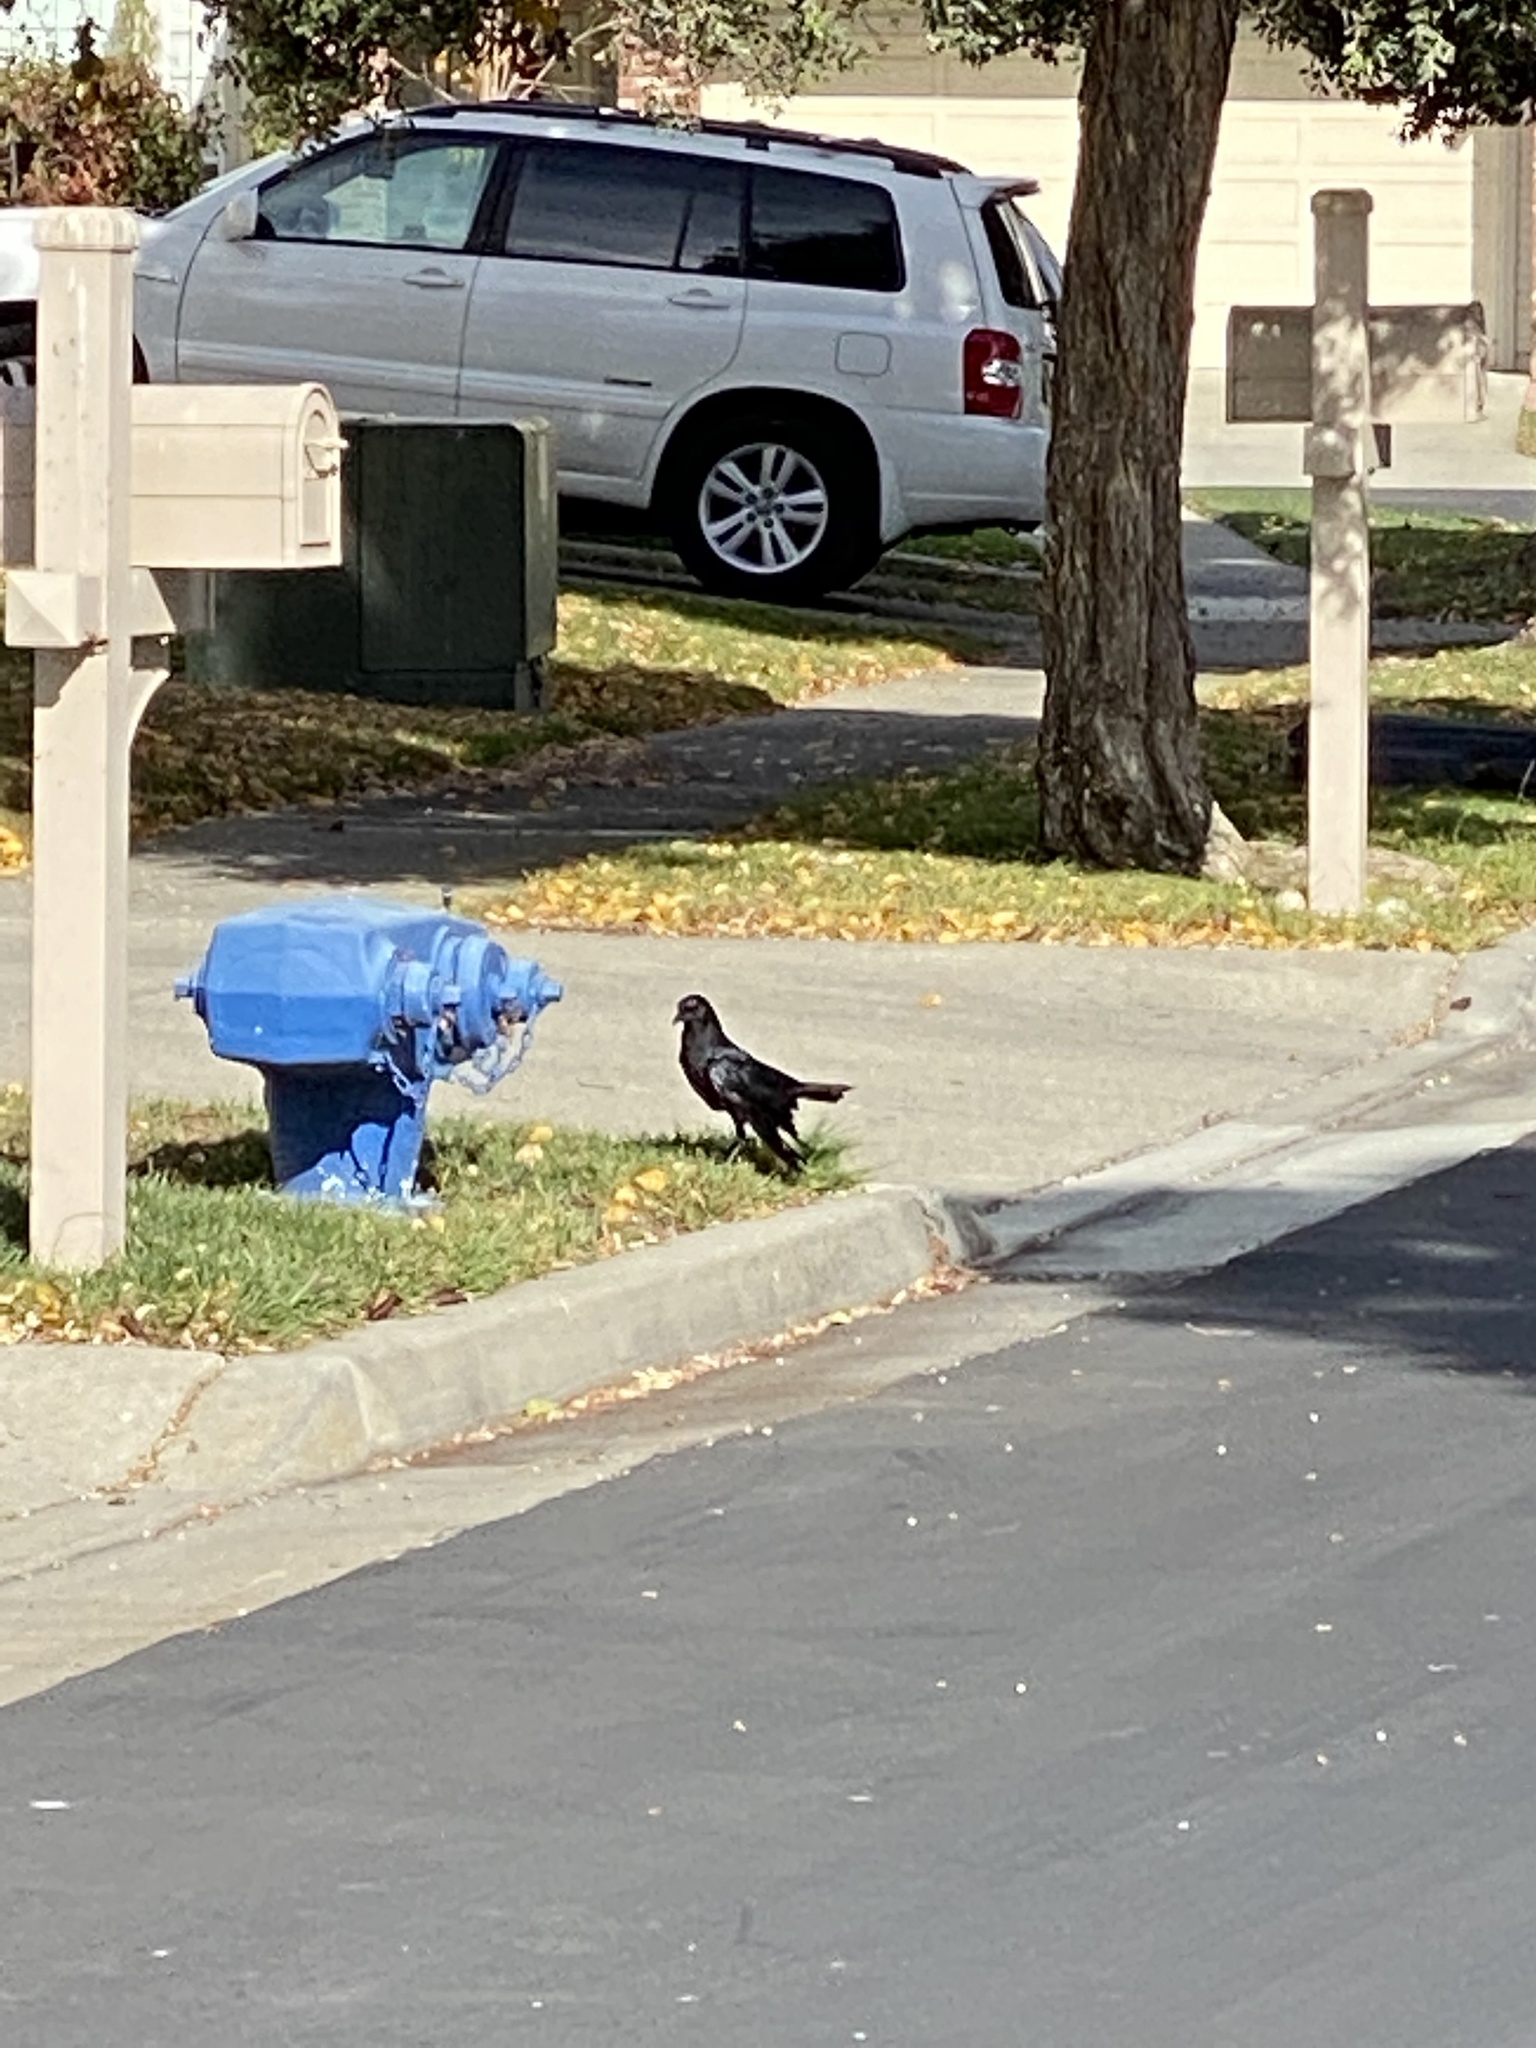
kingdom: Animalia
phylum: Chordata
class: Aves
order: Passeriformes
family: Corvidae
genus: Corvus
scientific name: Corvus brachyrhynchos
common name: American crow
